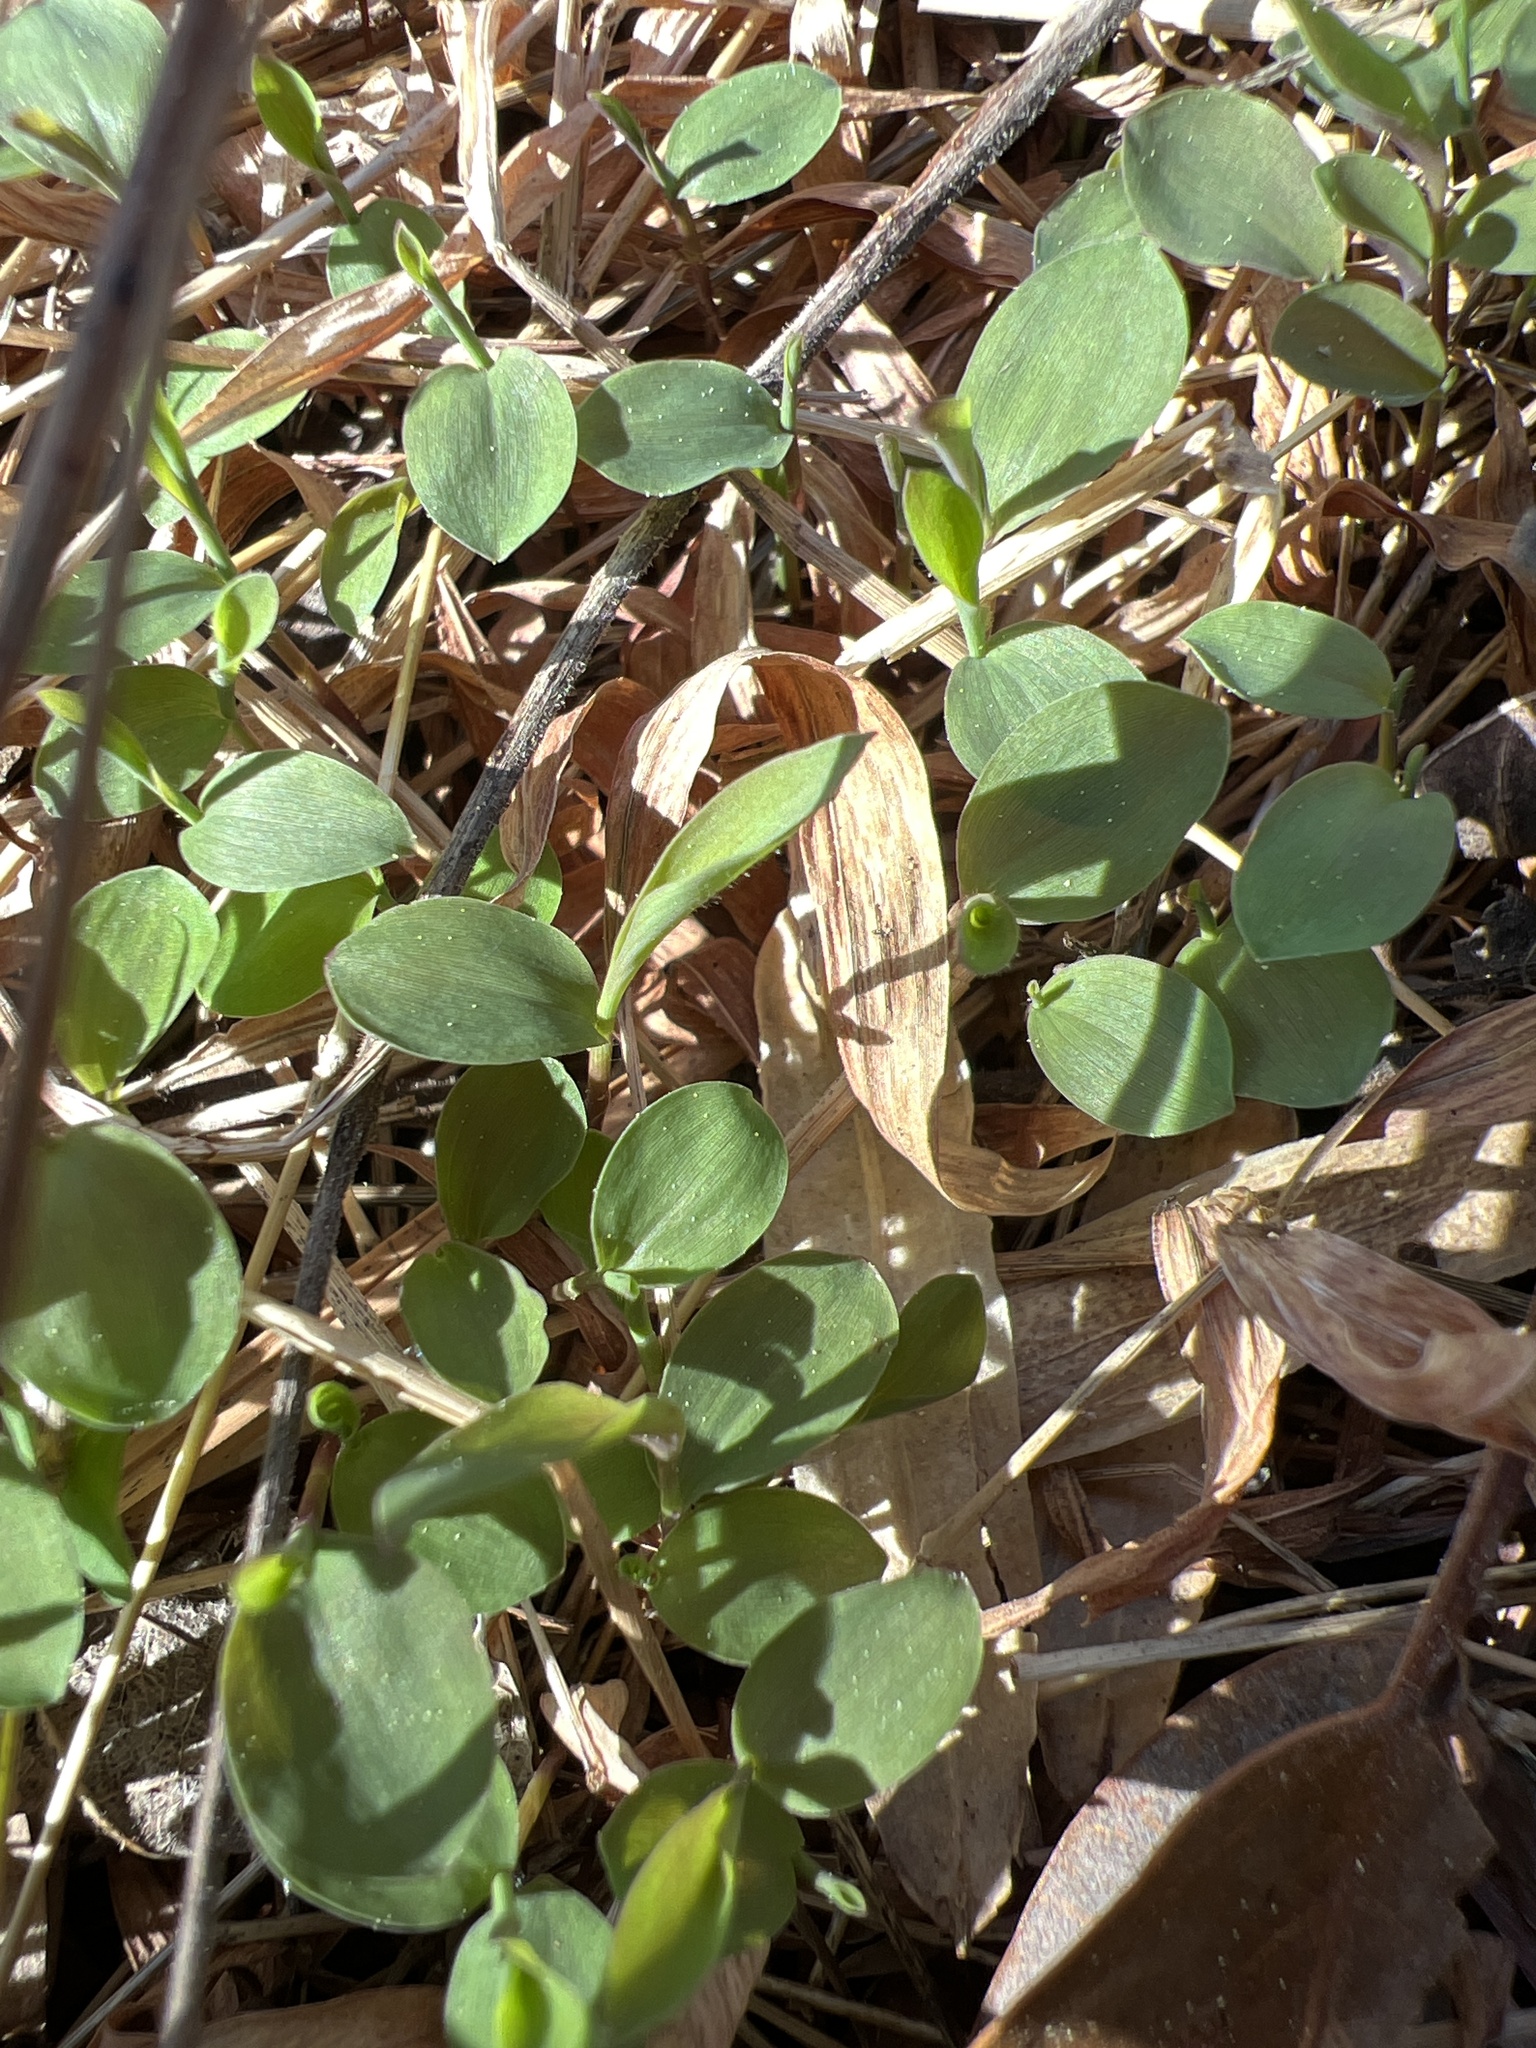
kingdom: Plantae
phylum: Tracheophyta
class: Liliopsida
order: Poales
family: Poaceae
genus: Microstegium
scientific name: Microstegium vimineum
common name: Japanese stiltgrass
